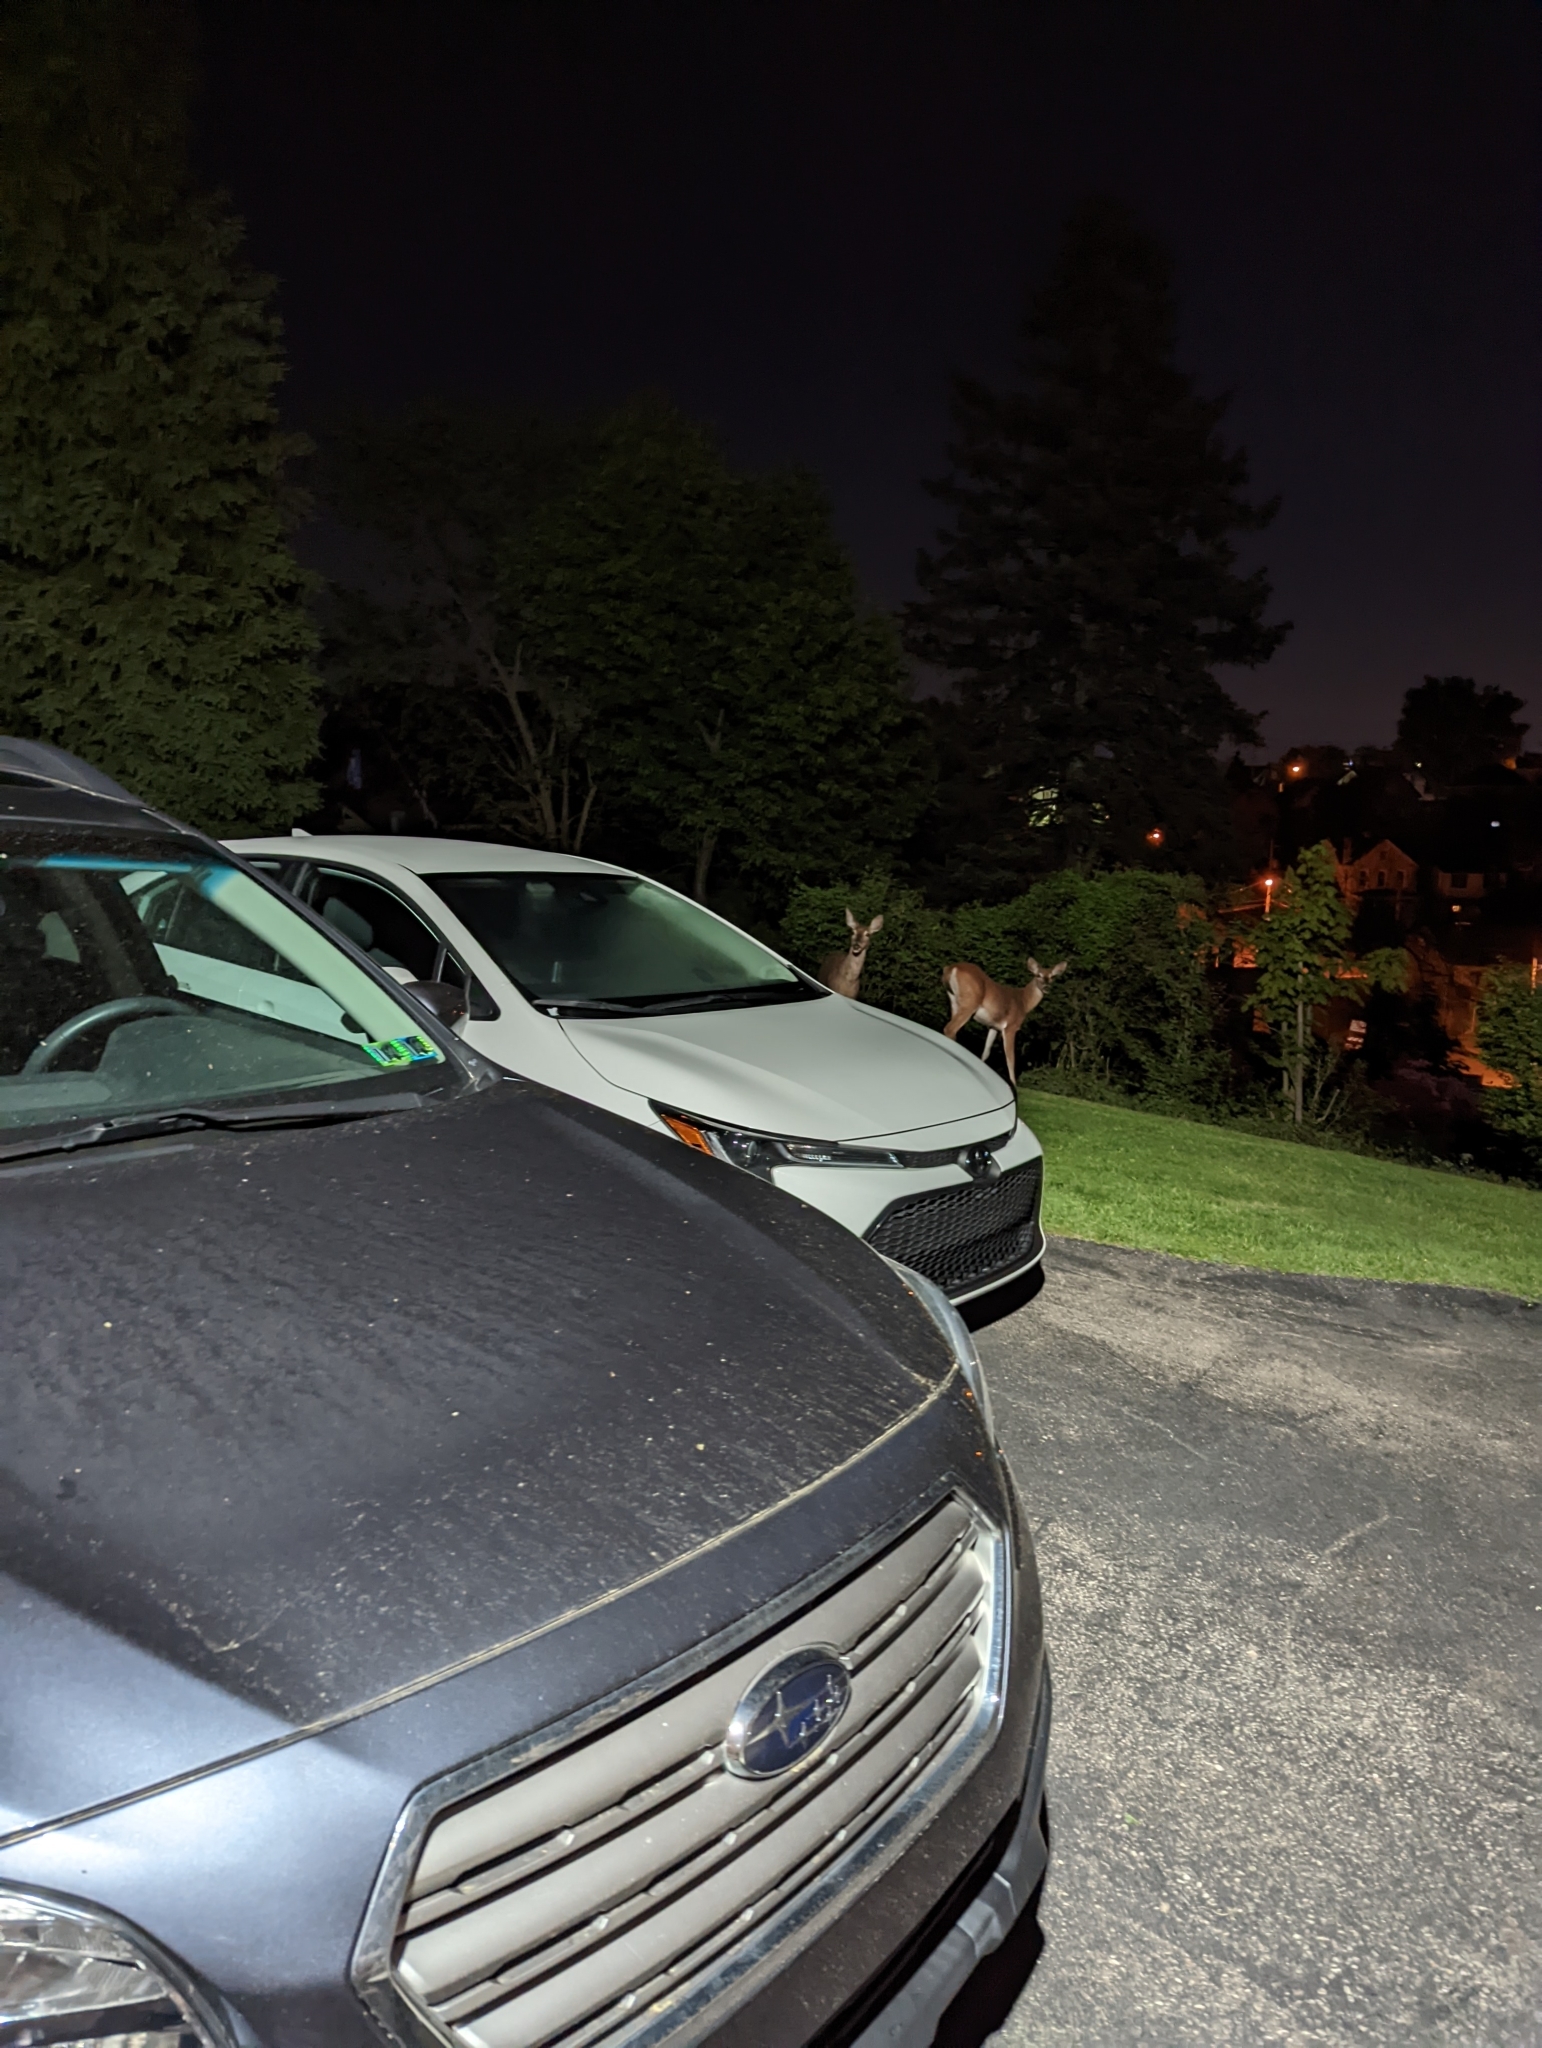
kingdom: Animalia
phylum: Chordata
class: Mammalia
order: Artiodactyla
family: Cervidae
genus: Odocoileus
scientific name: Odocoileus virginianus
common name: White-tailed deer
